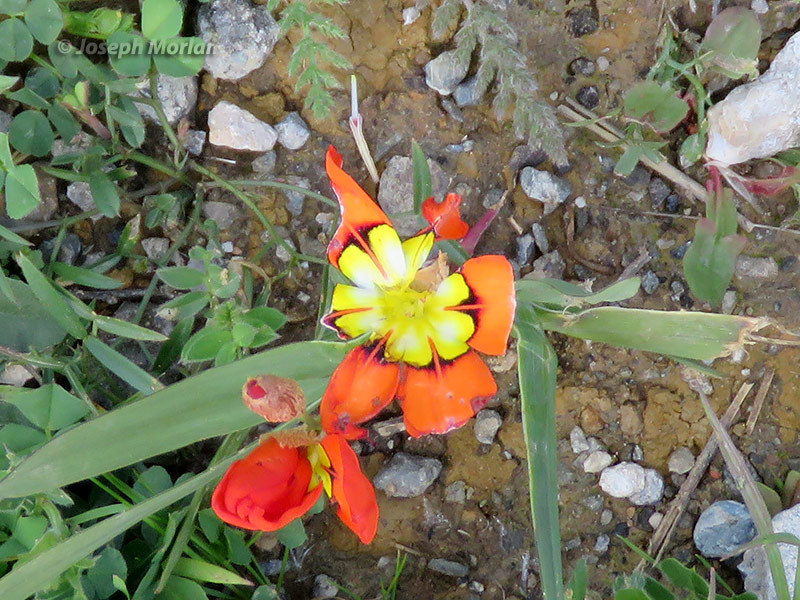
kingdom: Plantae
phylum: Tracheophyta
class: Liliopsida
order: Asparagales
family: Iridaceae
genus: Sparaxis
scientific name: Sparaxis tricolor
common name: Wandflower
